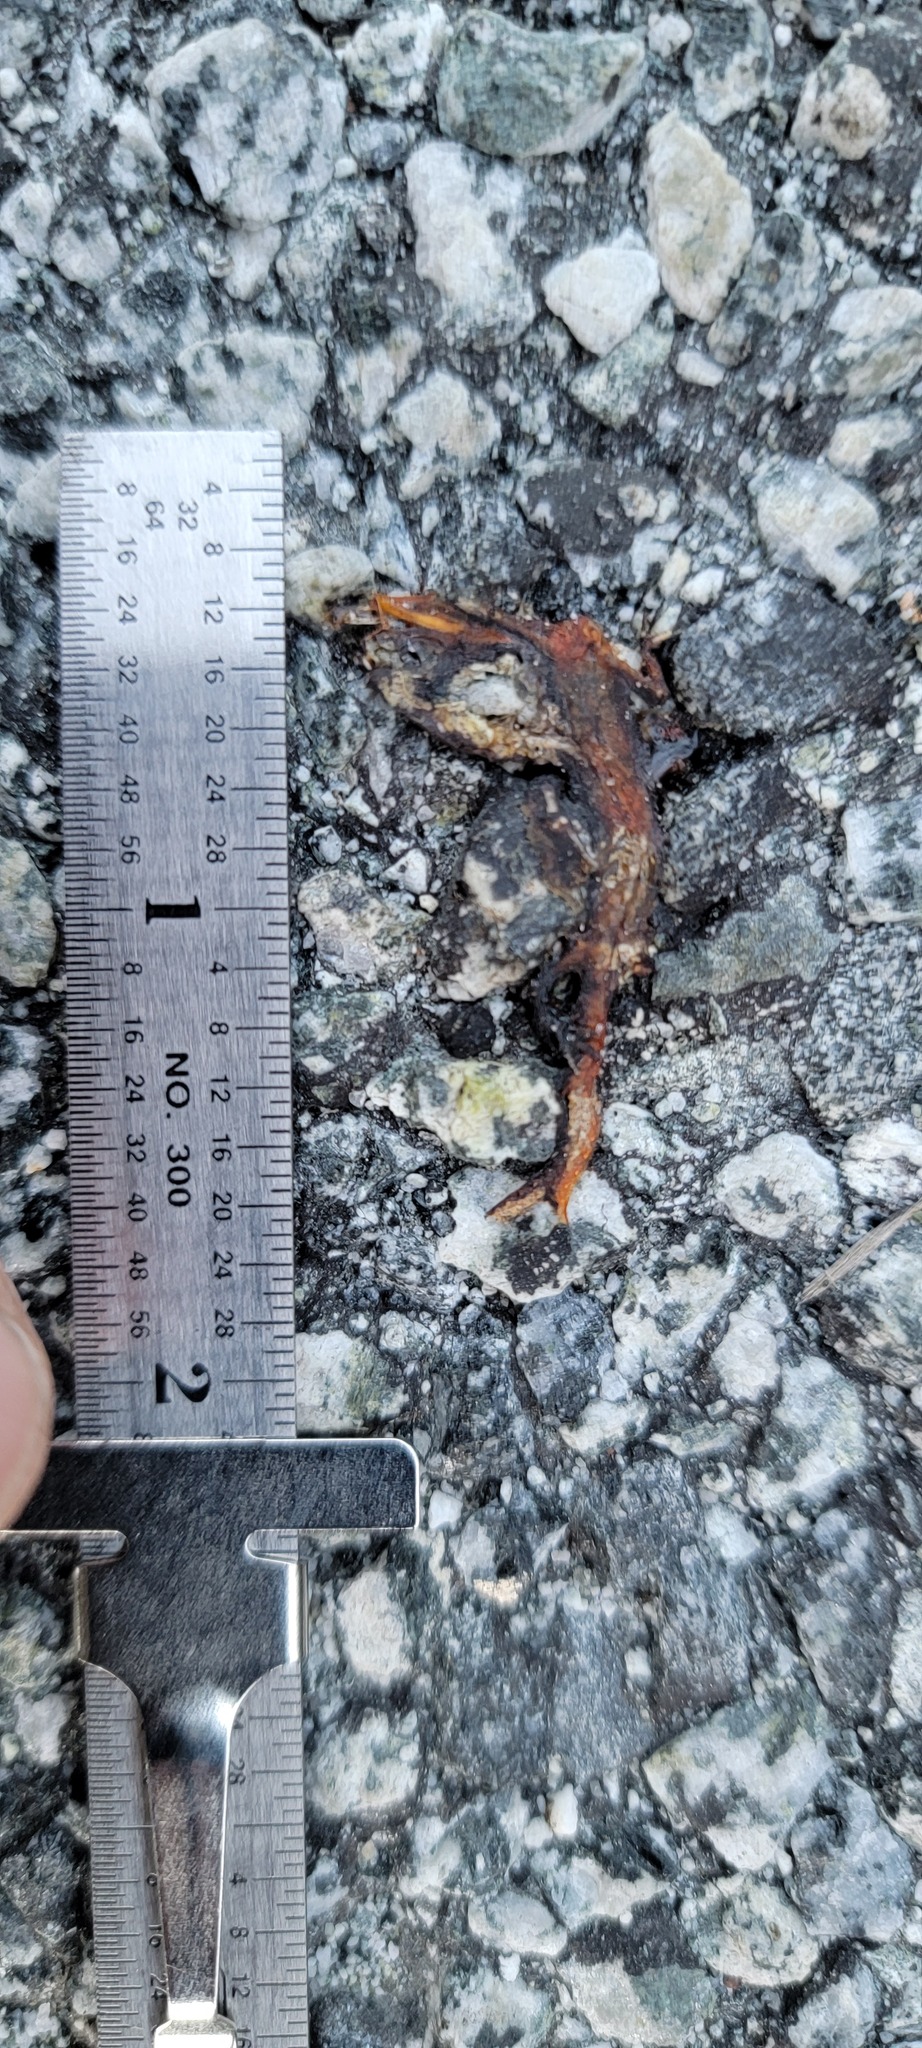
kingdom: Animalia
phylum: Chordata
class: Amphibia
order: Caudata
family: Salamandridae
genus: Taricha
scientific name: Taricha
